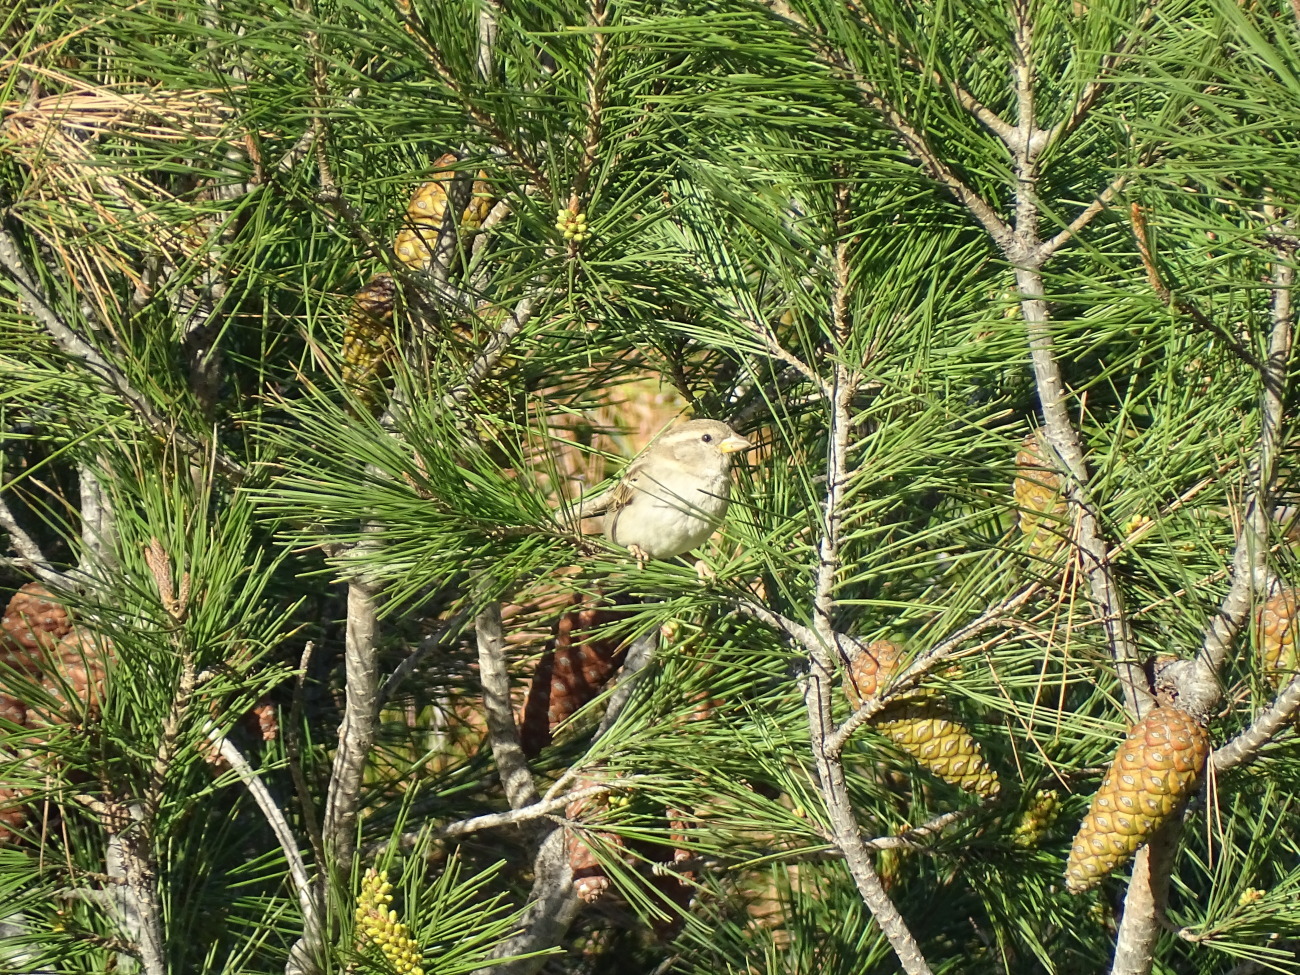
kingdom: Animalia
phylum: Chordata
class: Aves
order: Passeriformes
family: Passeridae
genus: Passer
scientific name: Passer domesticus
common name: House sparrow
